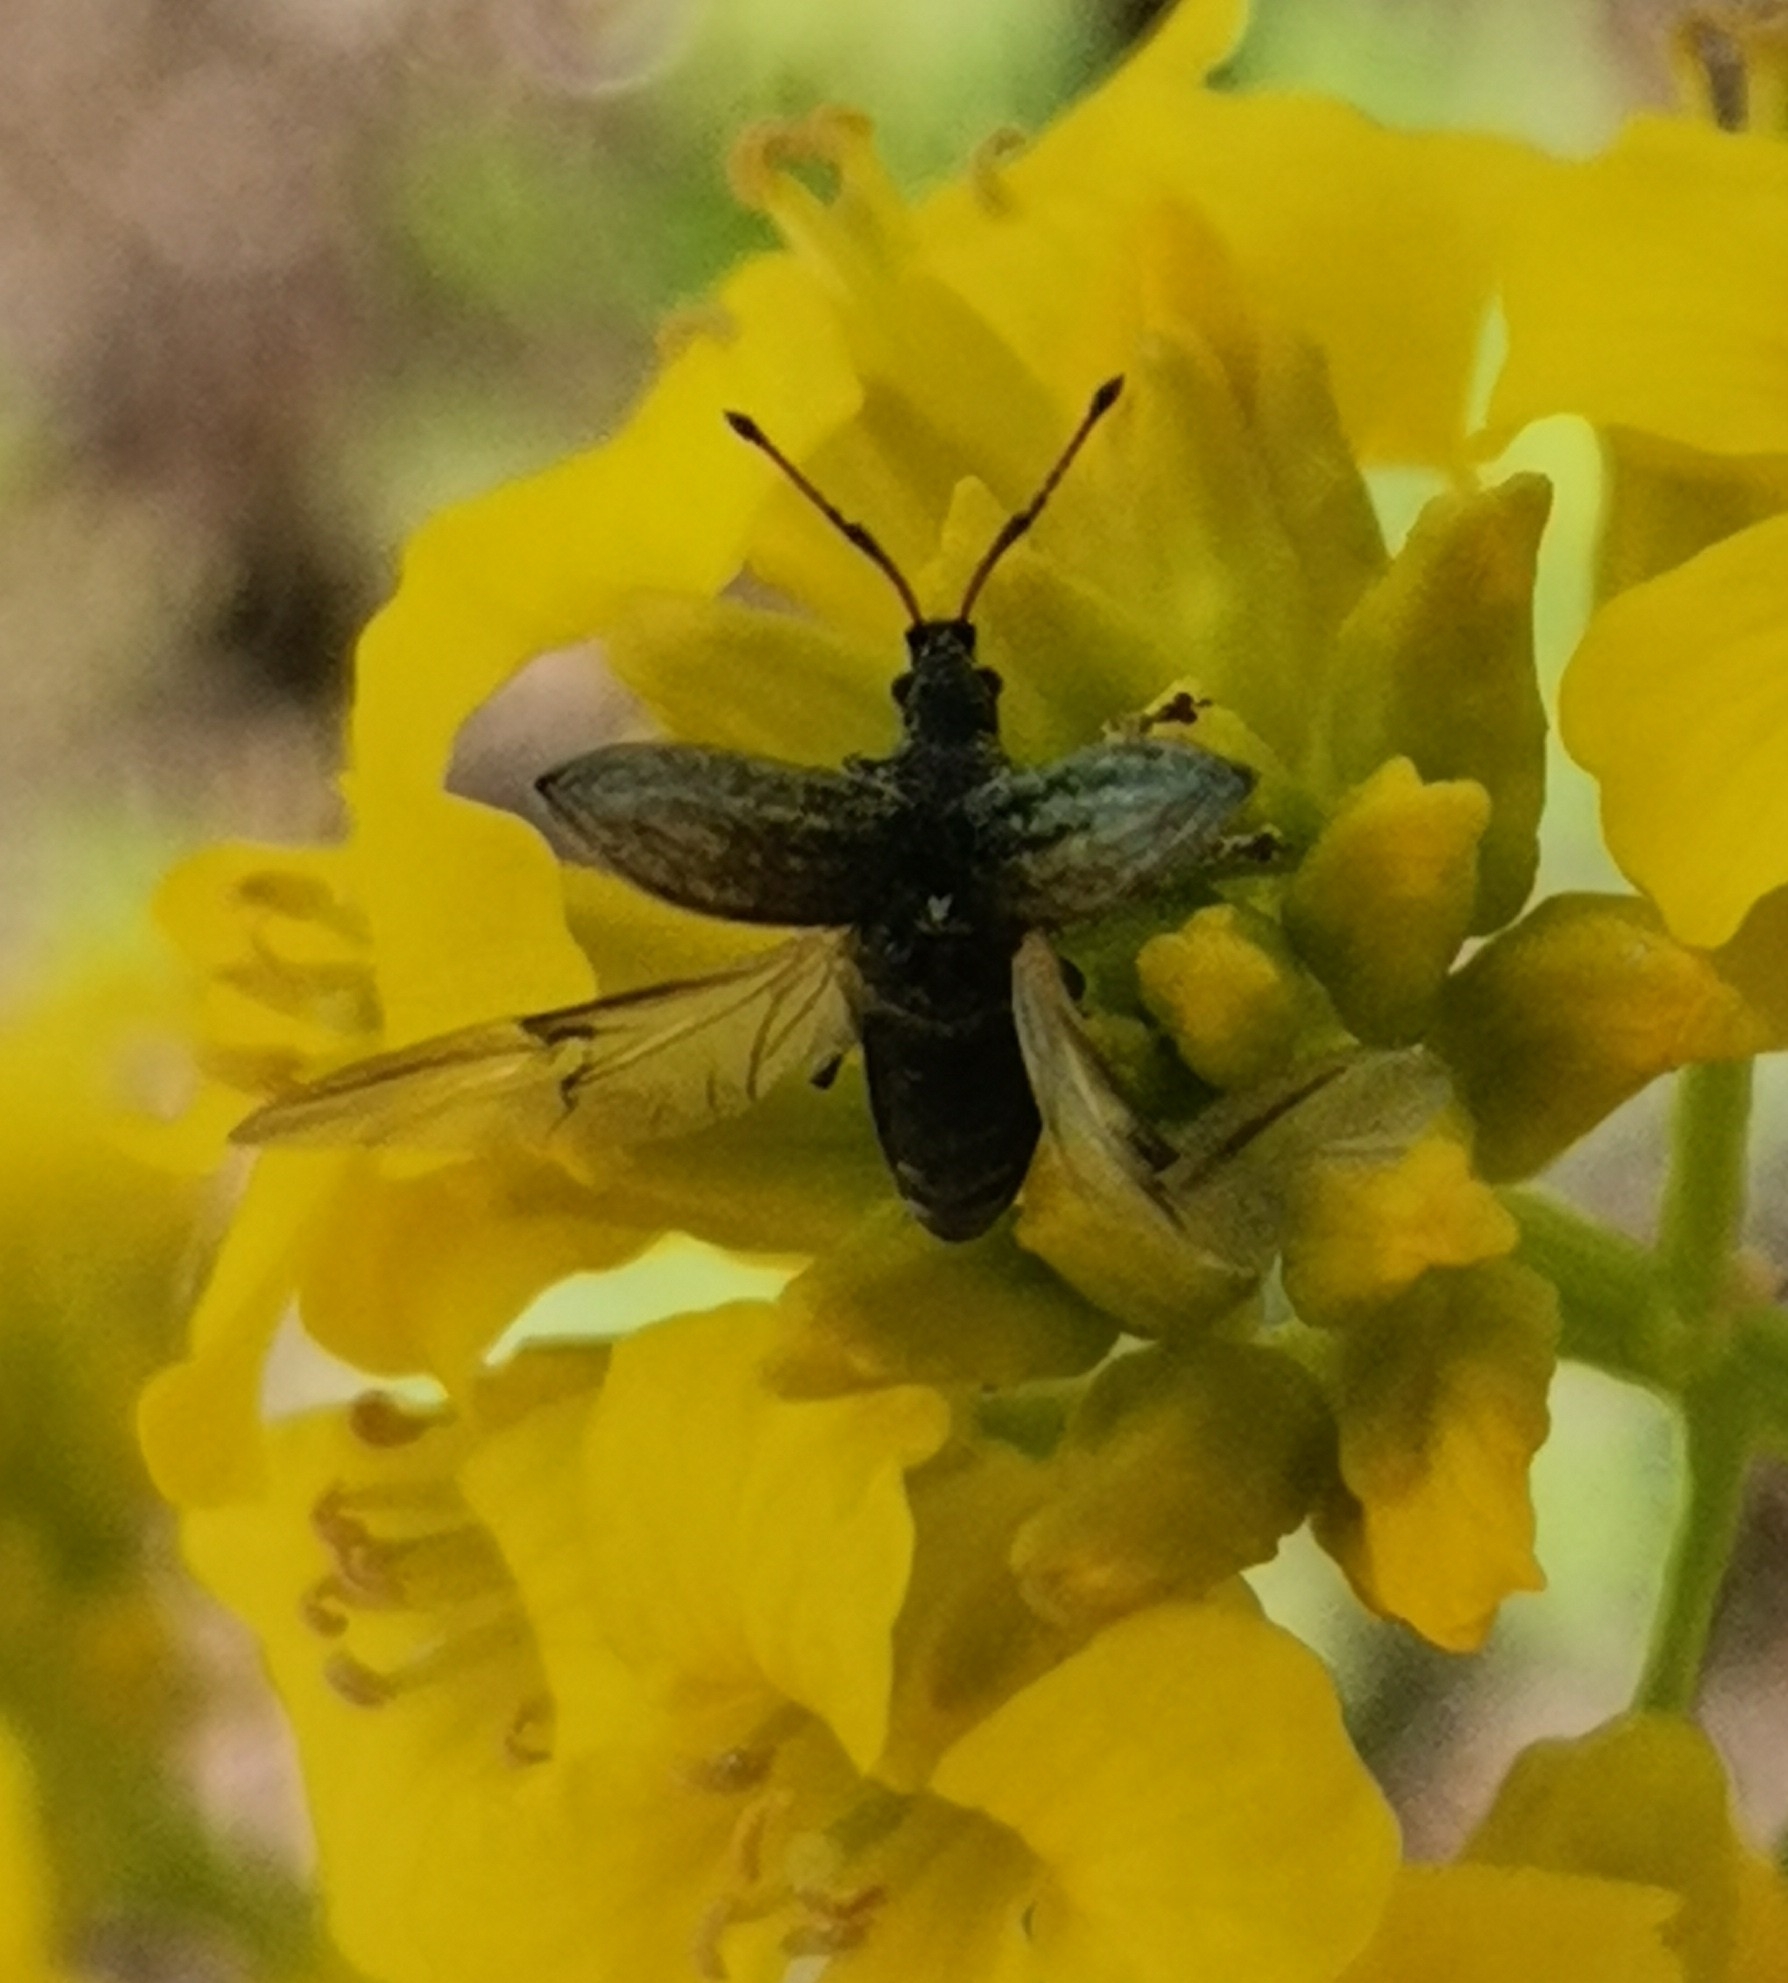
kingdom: Animalia
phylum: Arthropoda
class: Insecta
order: Coleoptera
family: Curculionidae
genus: Phyllobius
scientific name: Phyllobius pyri
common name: Common leaf weevil
